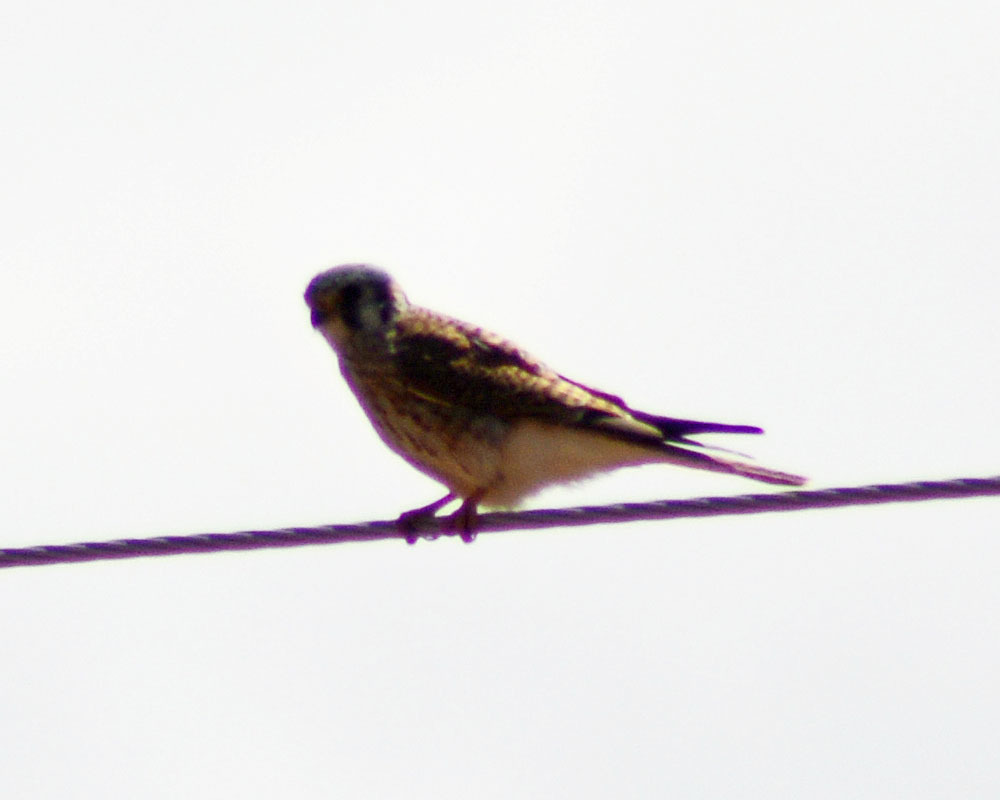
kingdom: Animalia
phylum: Chordata
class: Aves
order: Falconiformes
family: Falconidae
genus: Falco
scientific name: Falco sparverius
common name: American kestrel
